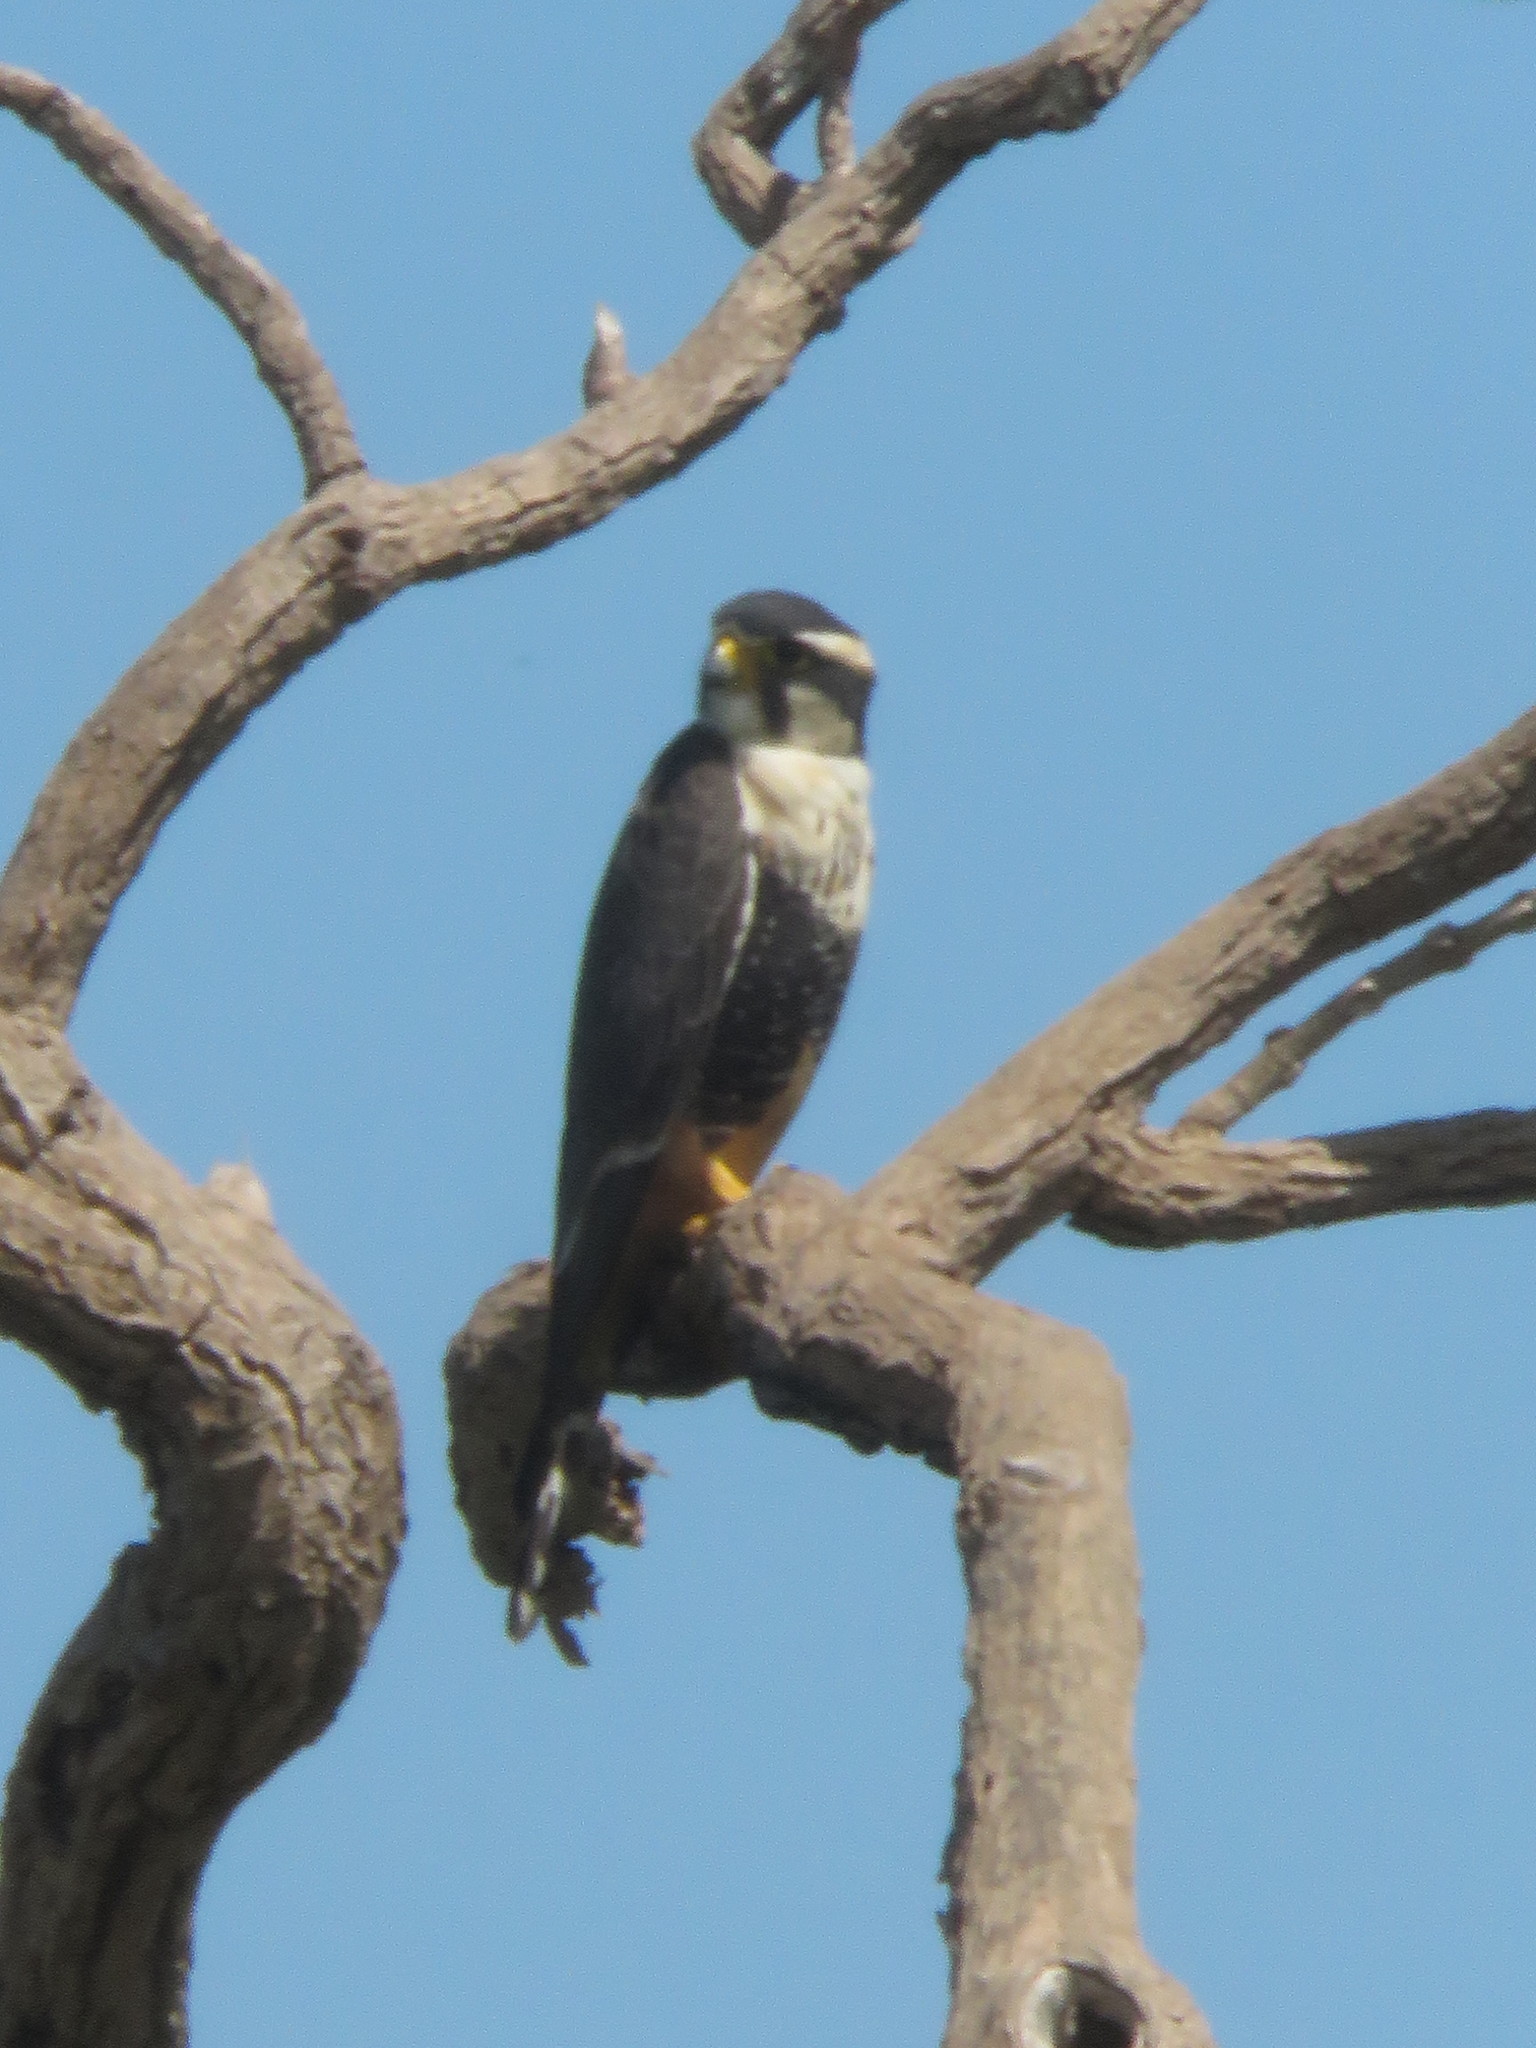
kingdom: Animalia
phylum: Chordata
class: Aves
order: Falconiformes
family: Falconidae
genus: Falco
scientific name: Falco femoralis
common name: Aplomado falcon
